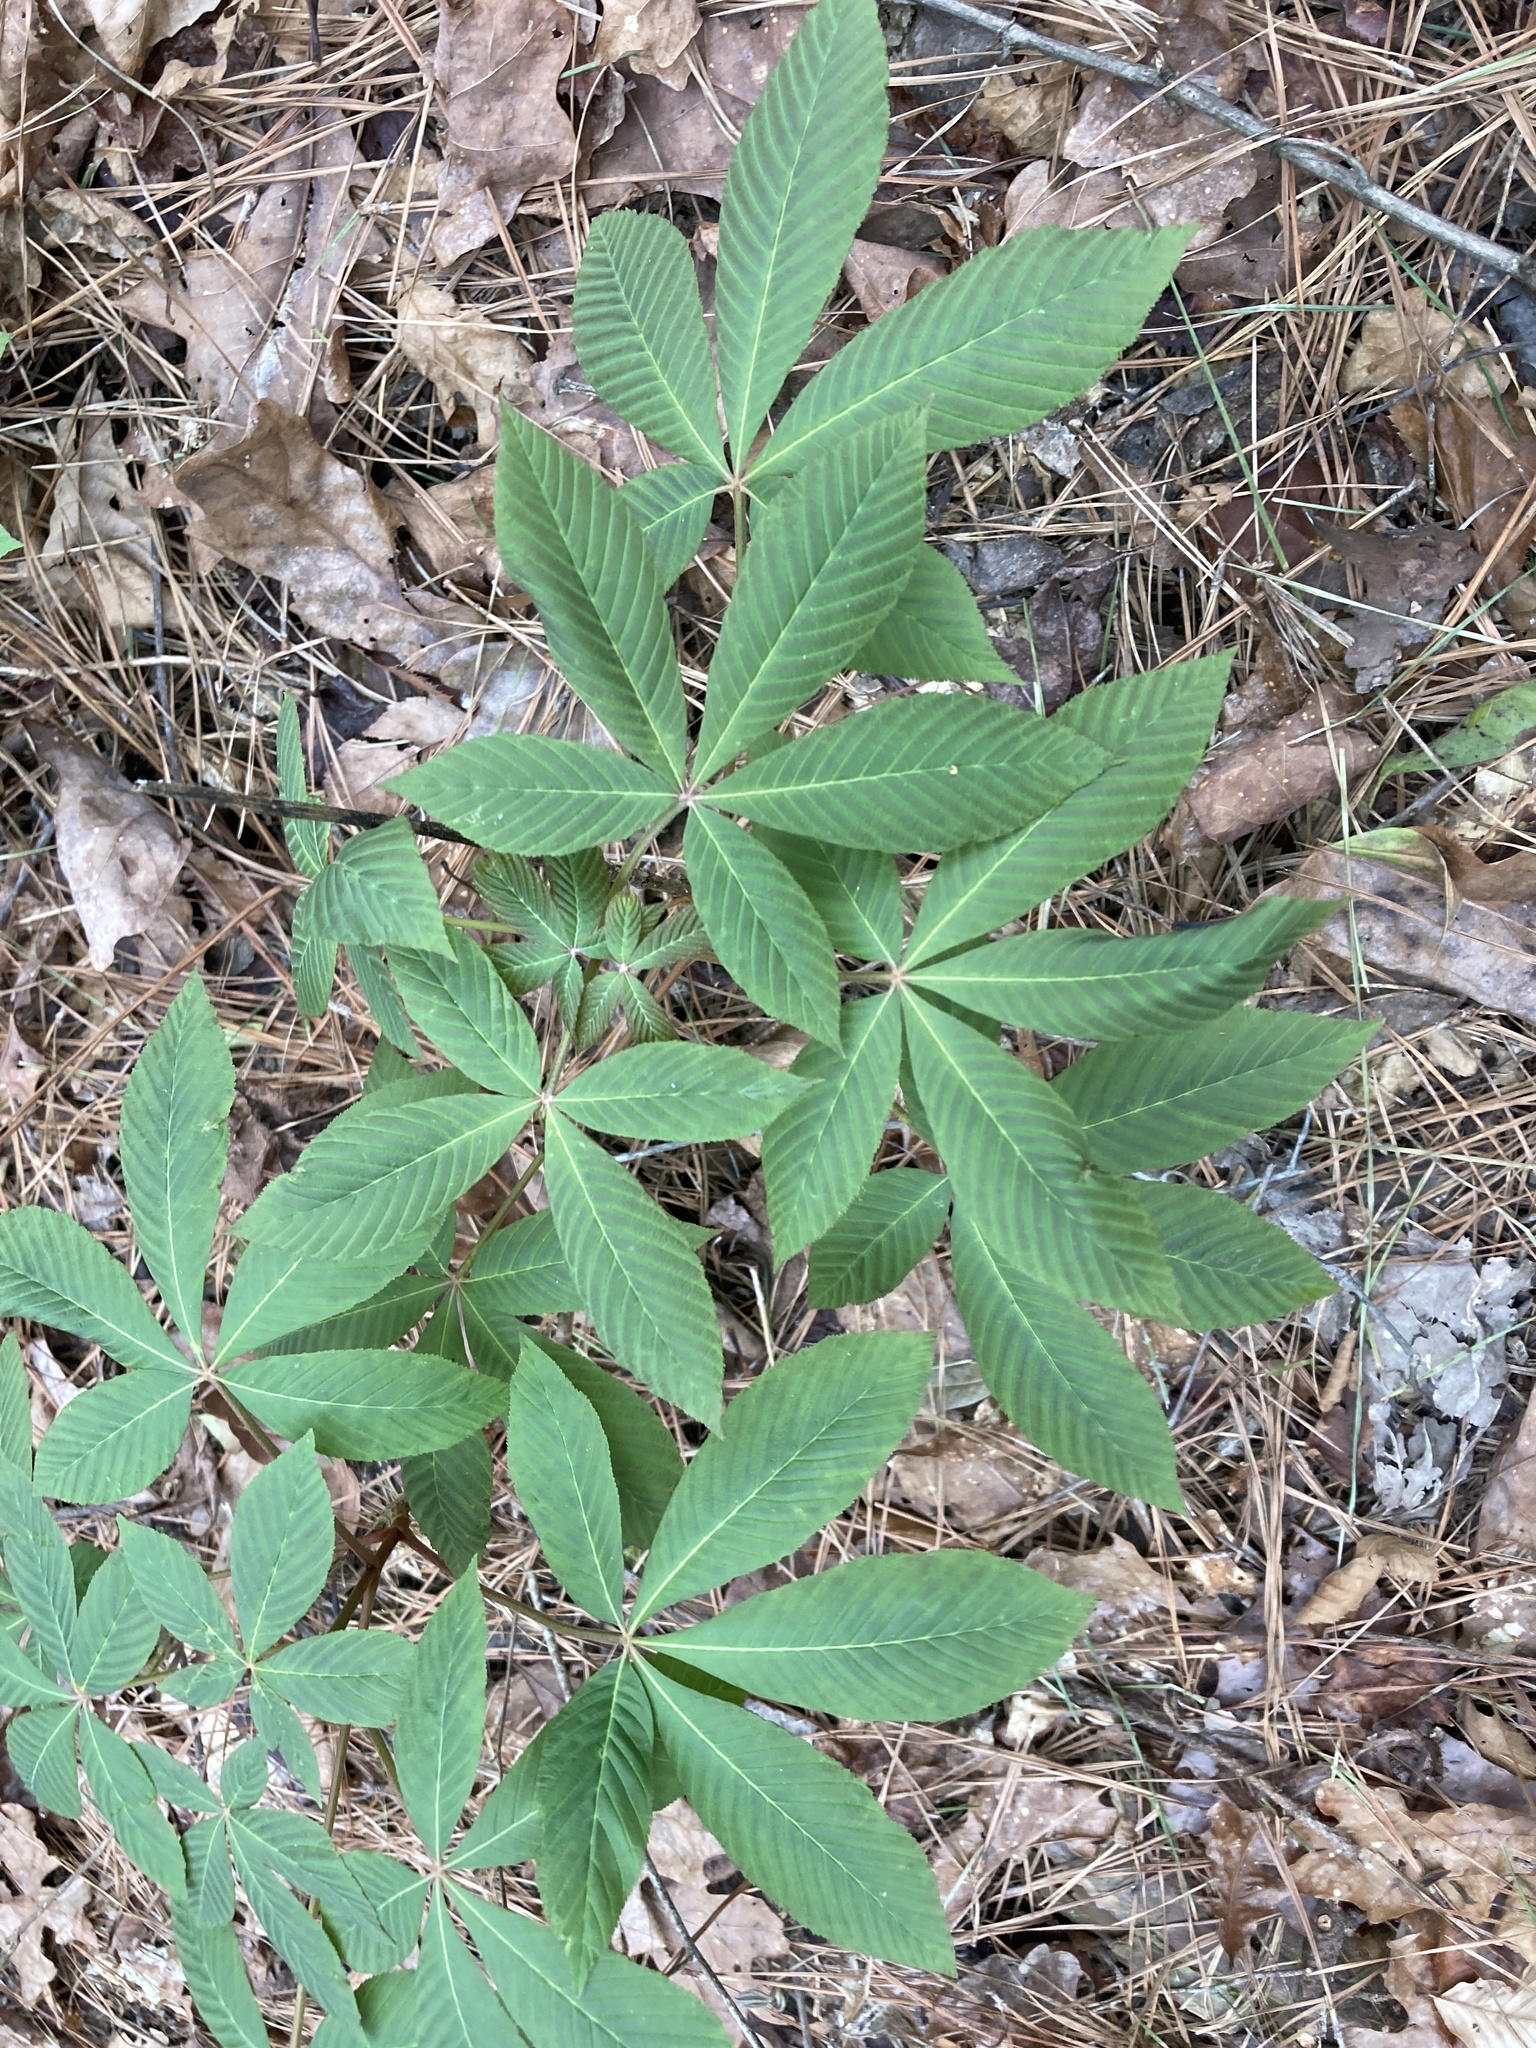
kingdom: Plantae
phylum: Tracheophyta
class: Magnoliopsida
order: Sapindales
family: Sapindaceae
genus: Aesculus
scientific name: Aesculus pavia
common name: Red buckeye
